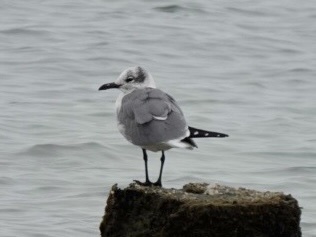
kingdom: Animalia
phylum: Chordata
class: Aves
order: Charadriiformes
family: Laridae
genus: Leucophaeus
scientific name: Leucophaeus atricilla
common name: Laughing gull
